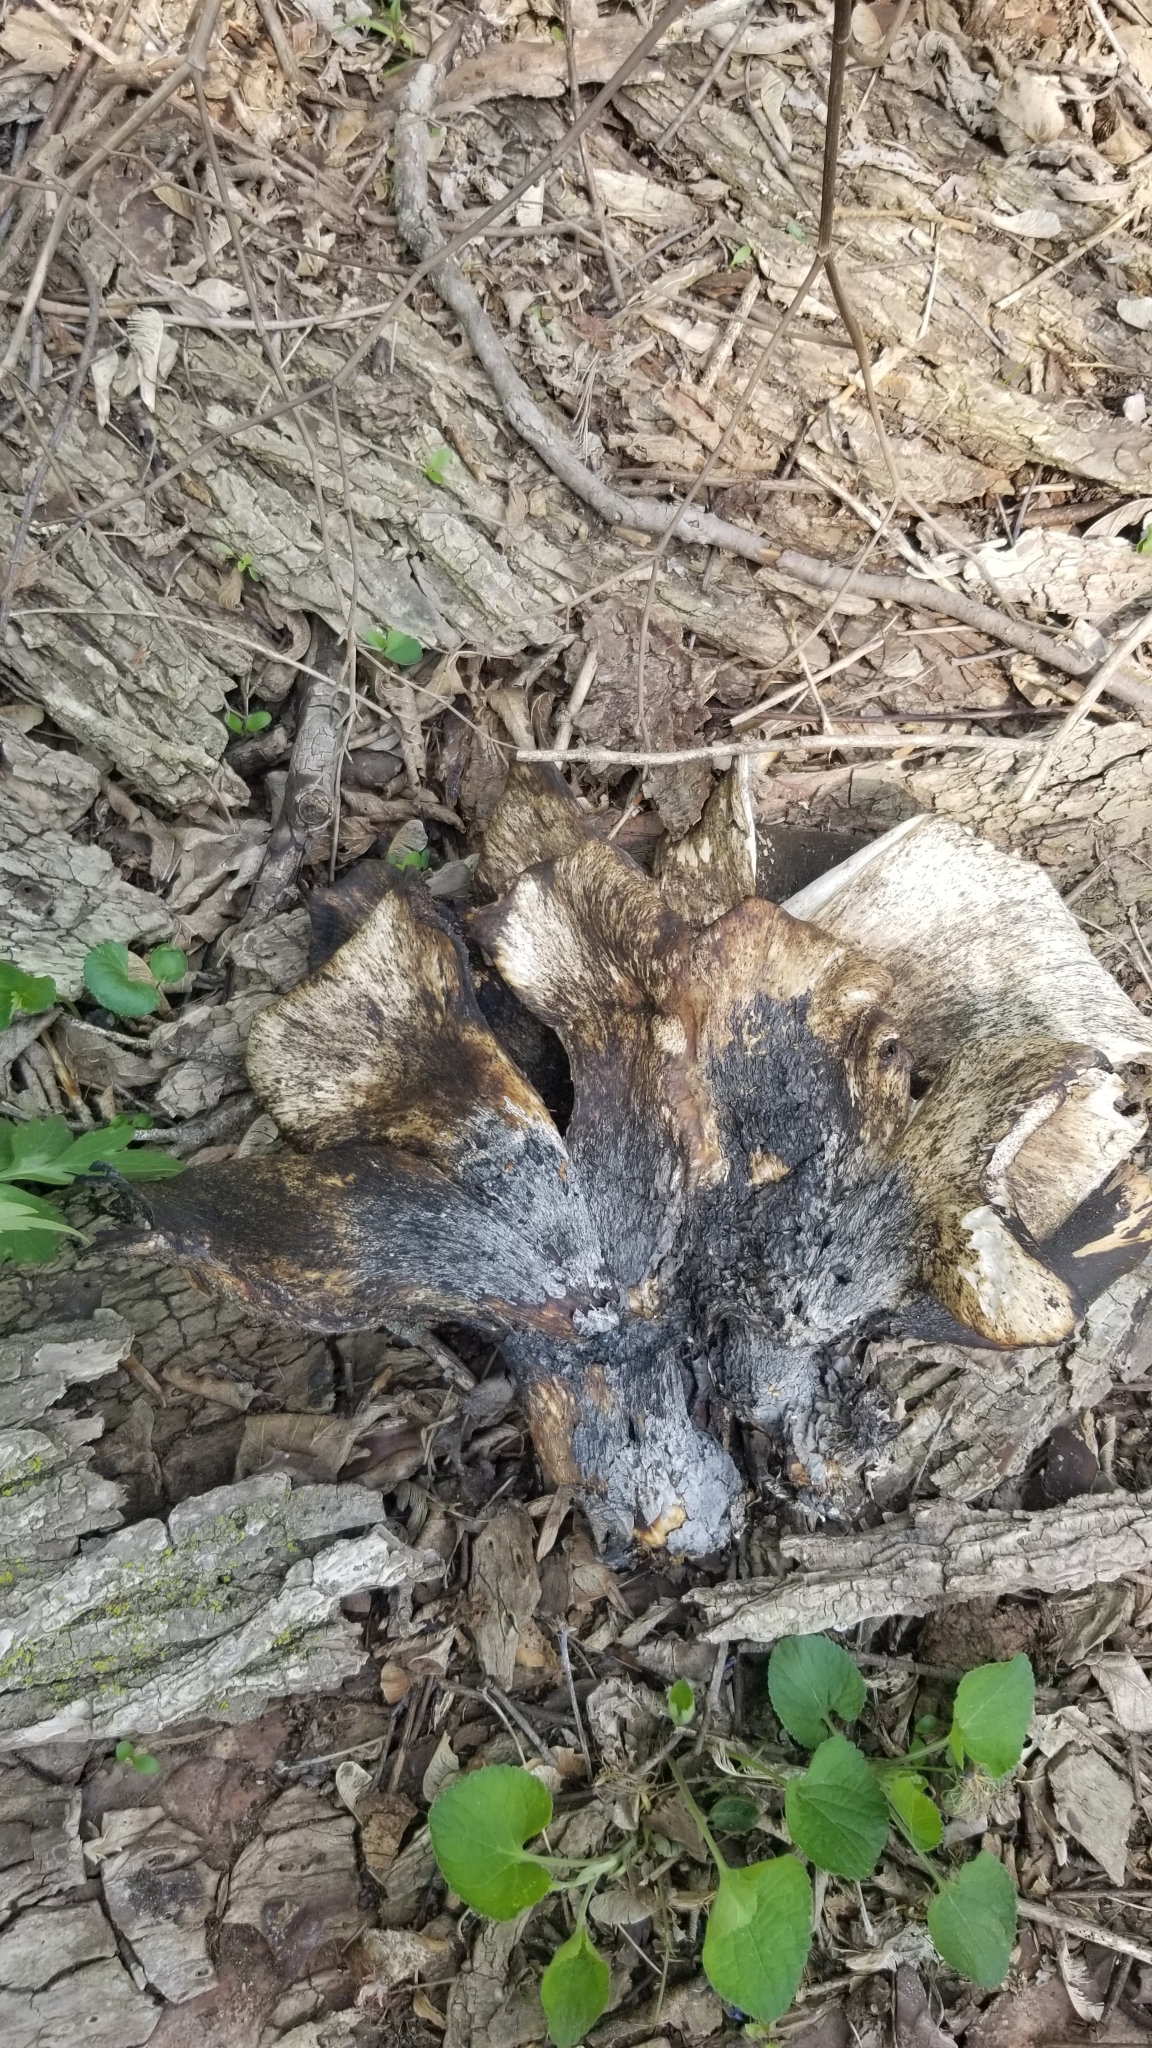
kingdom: Fungi
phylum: Basidiomycota
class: Agaricomycetes
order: Polyporales
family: Polyporaceae
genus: Cerioporus
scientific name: Cerioporus squamosus
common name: Dryad's saddle
